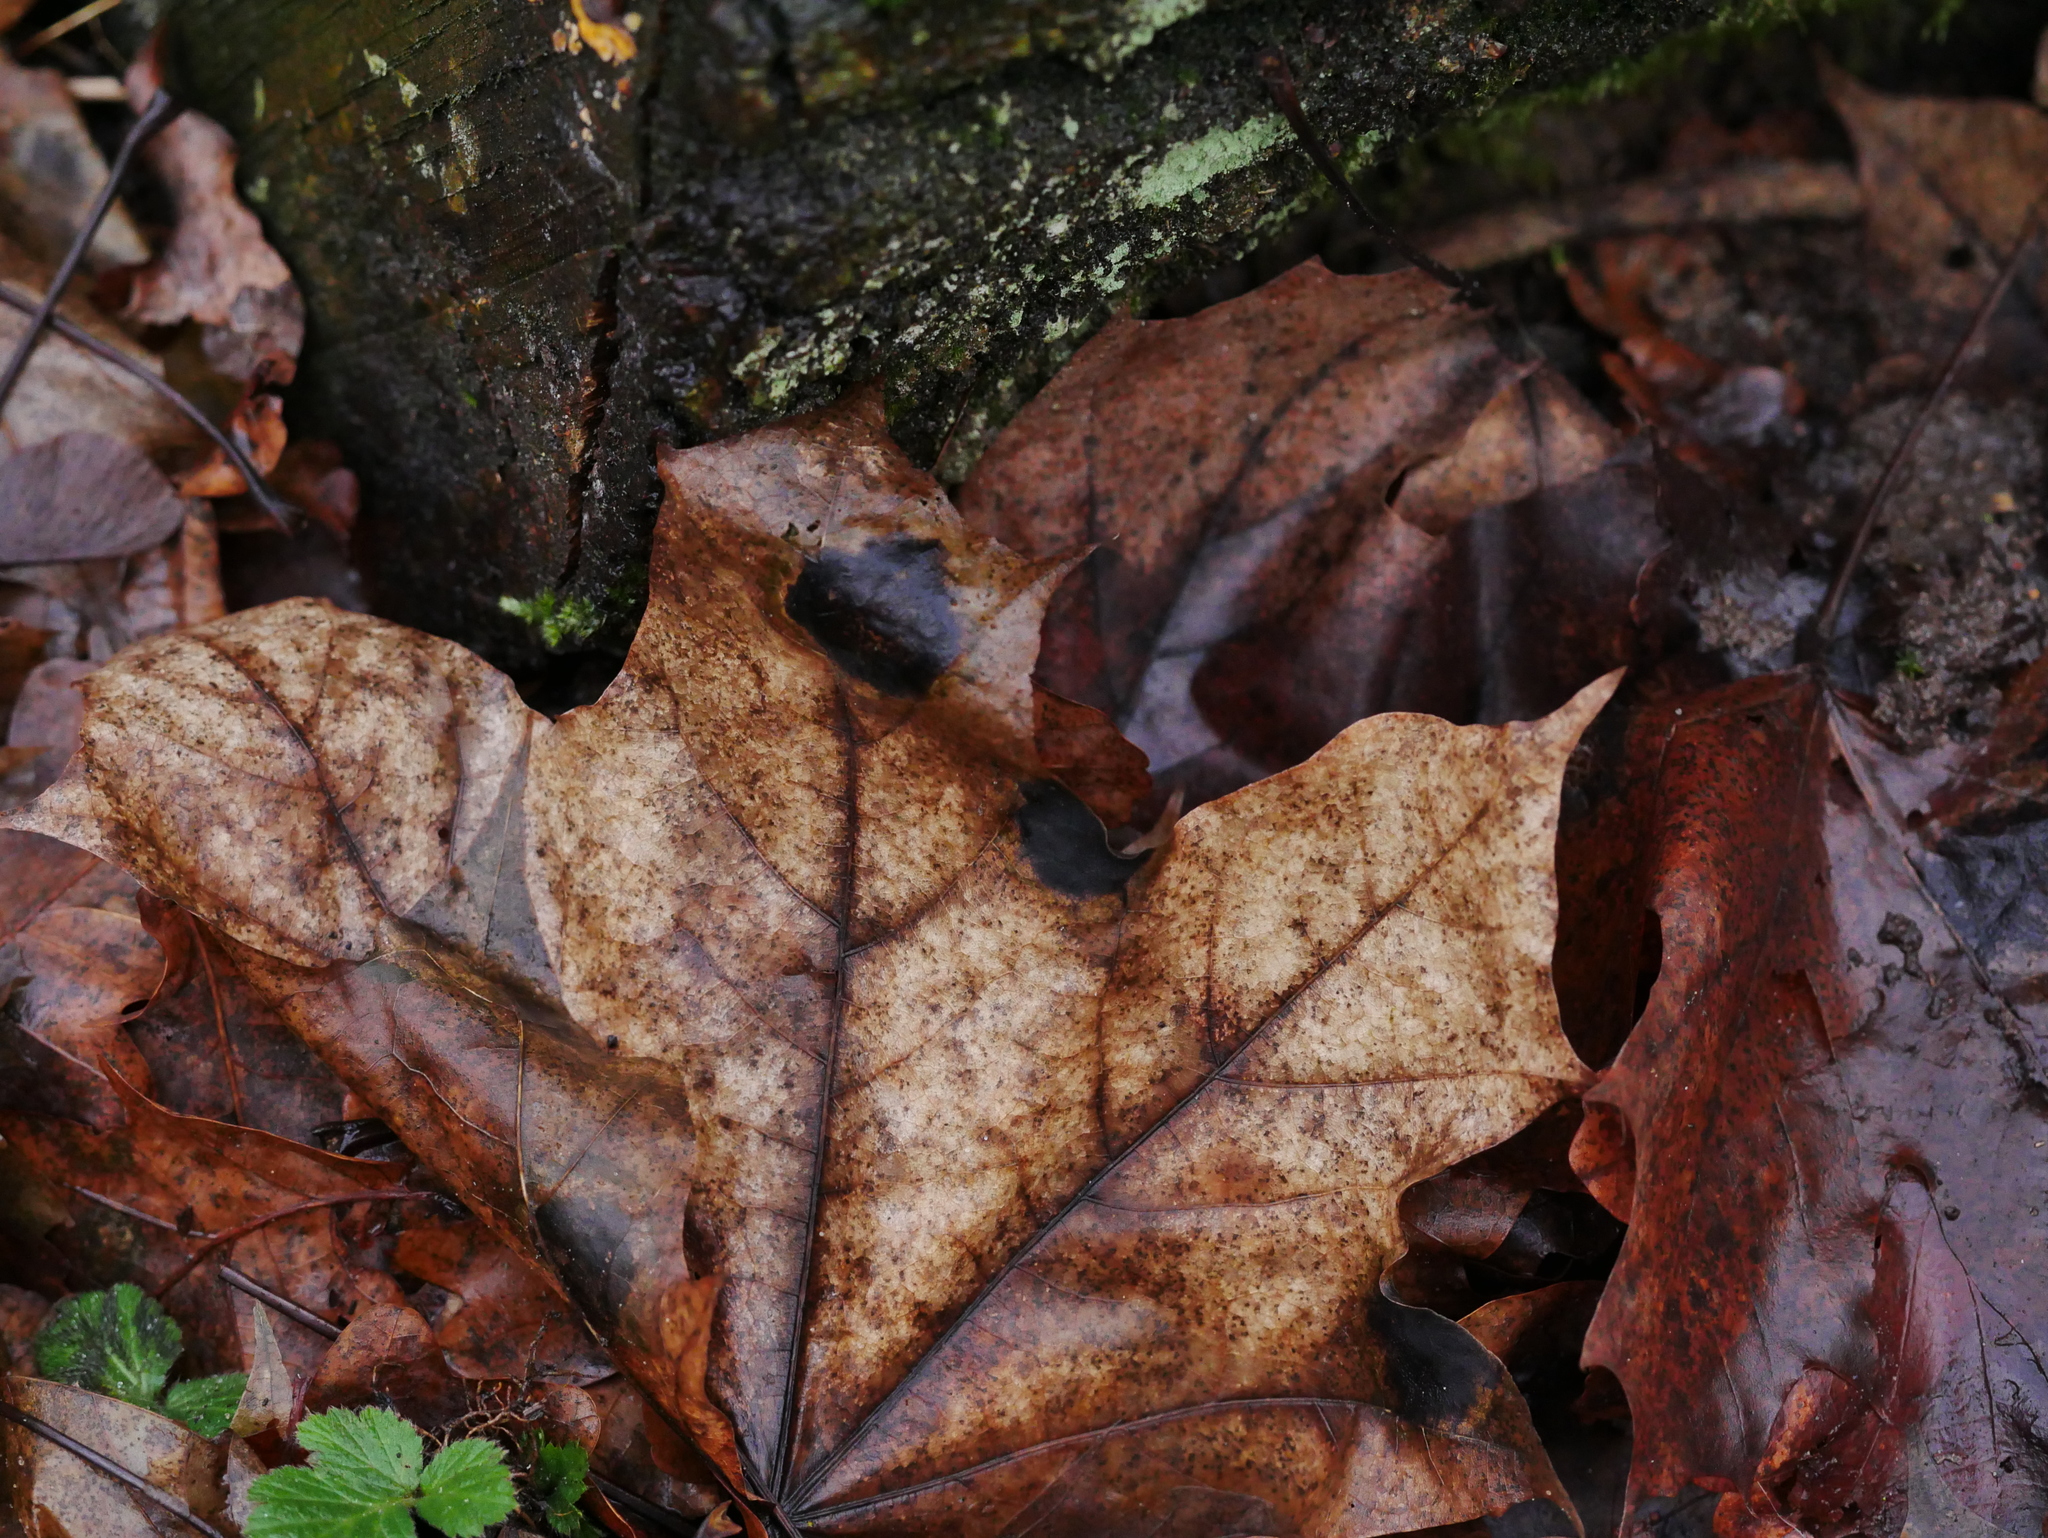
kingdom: Fungi
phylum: Ascomycota
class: Leotiomycetes
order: Rhytismatales
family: Rhytismataceae
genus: Rhytisma
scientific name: Rhytisma acerinum
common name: European tar spot
